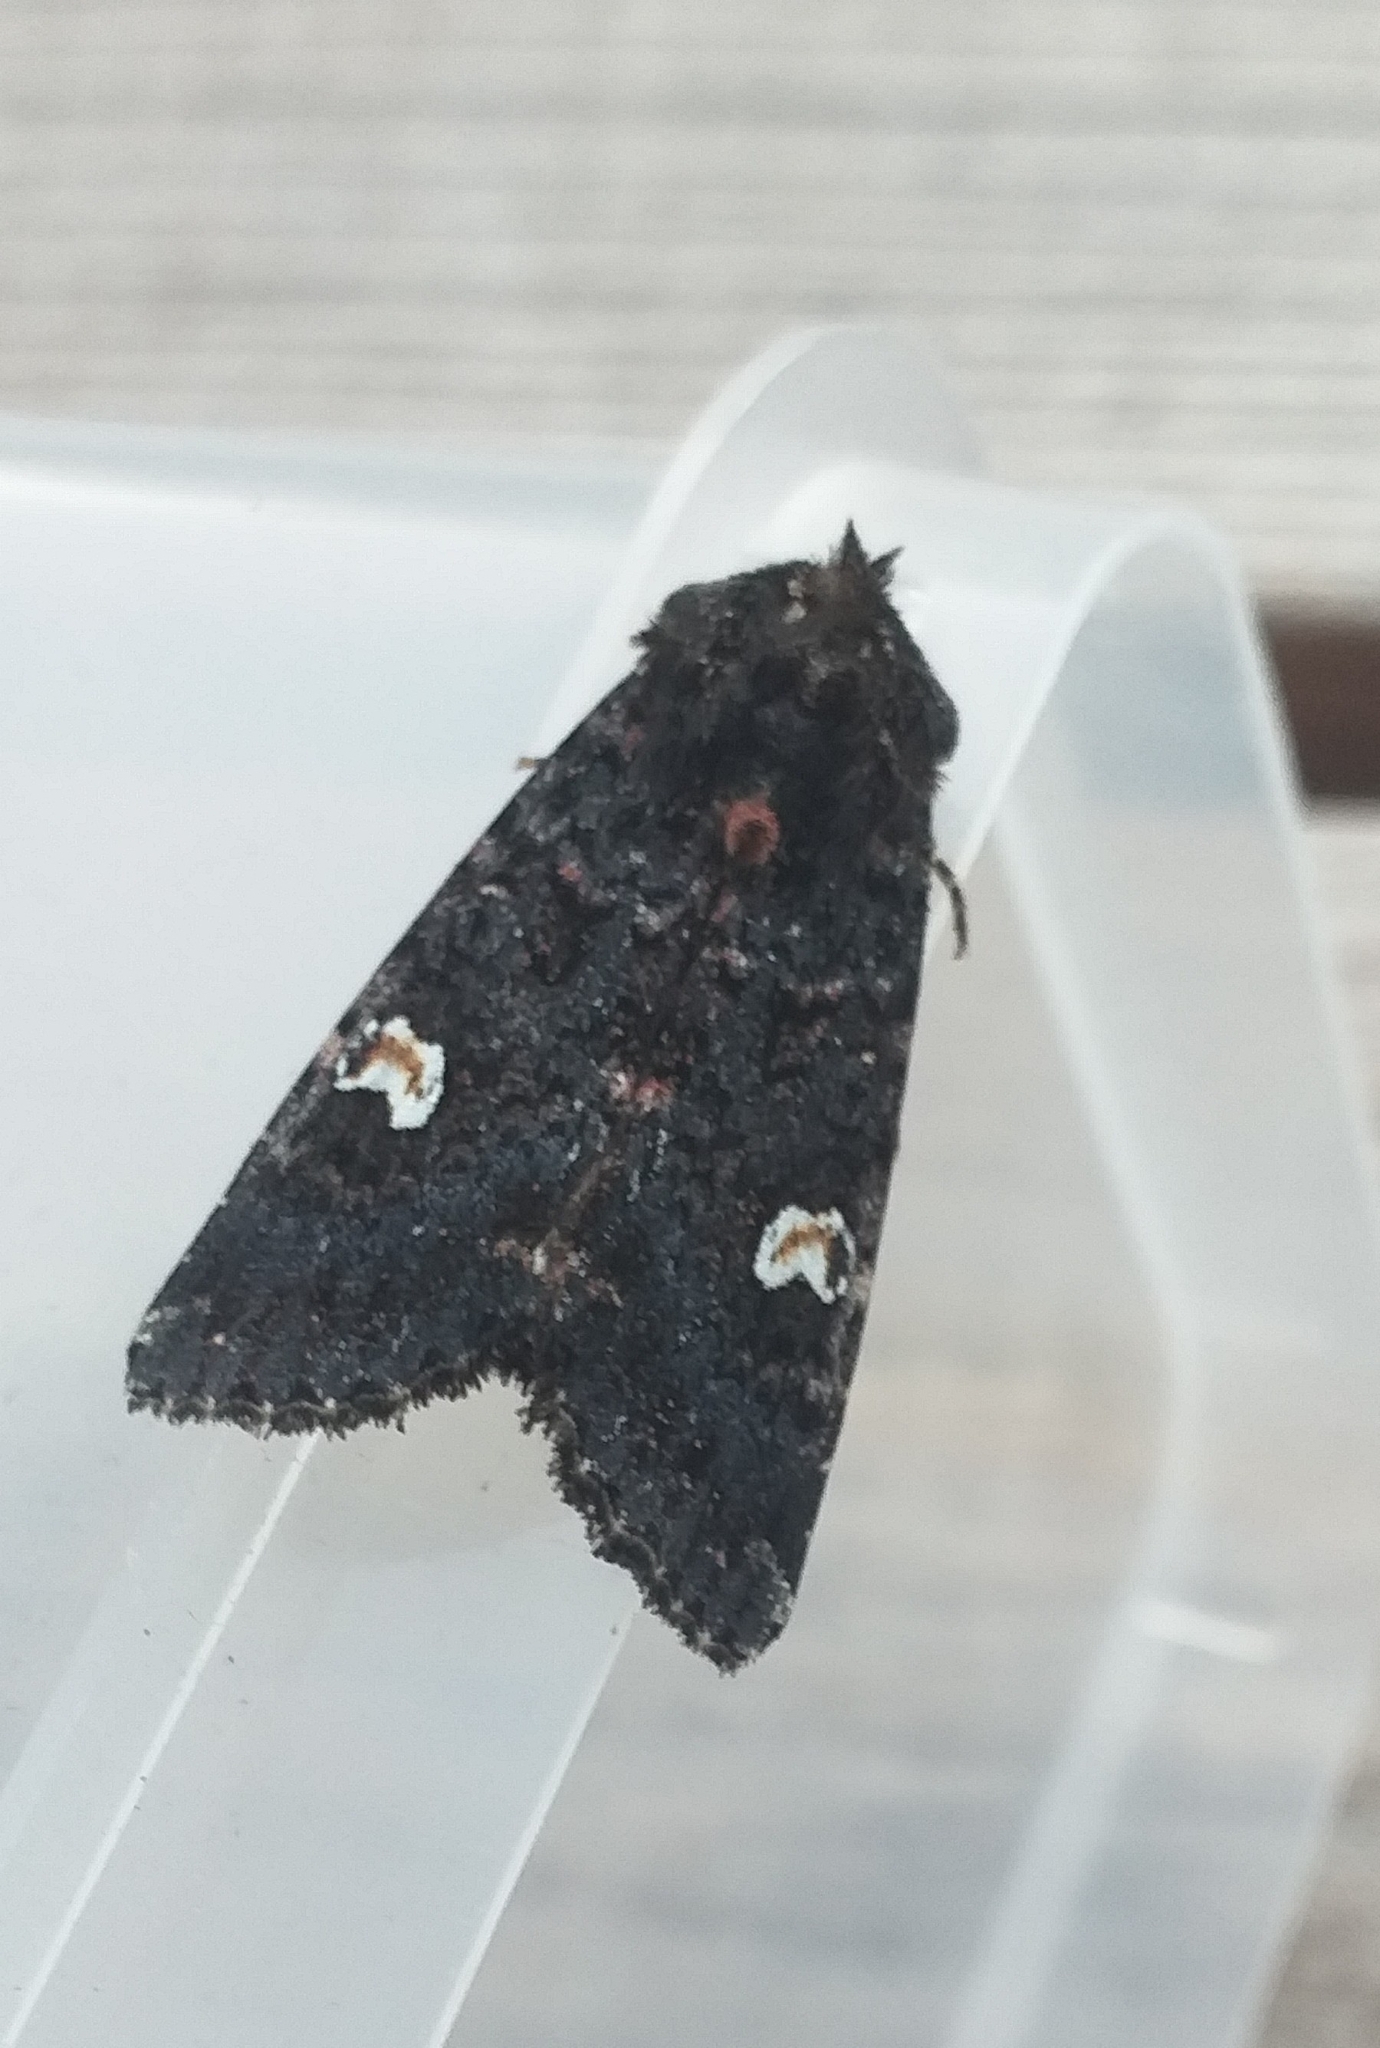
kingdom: Animalia
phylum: Arthropoda
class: Insecta
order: Lepidoptera
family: Noctuidae
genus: Melanchra
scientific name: Melanchra persicariae
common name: Dot moth
